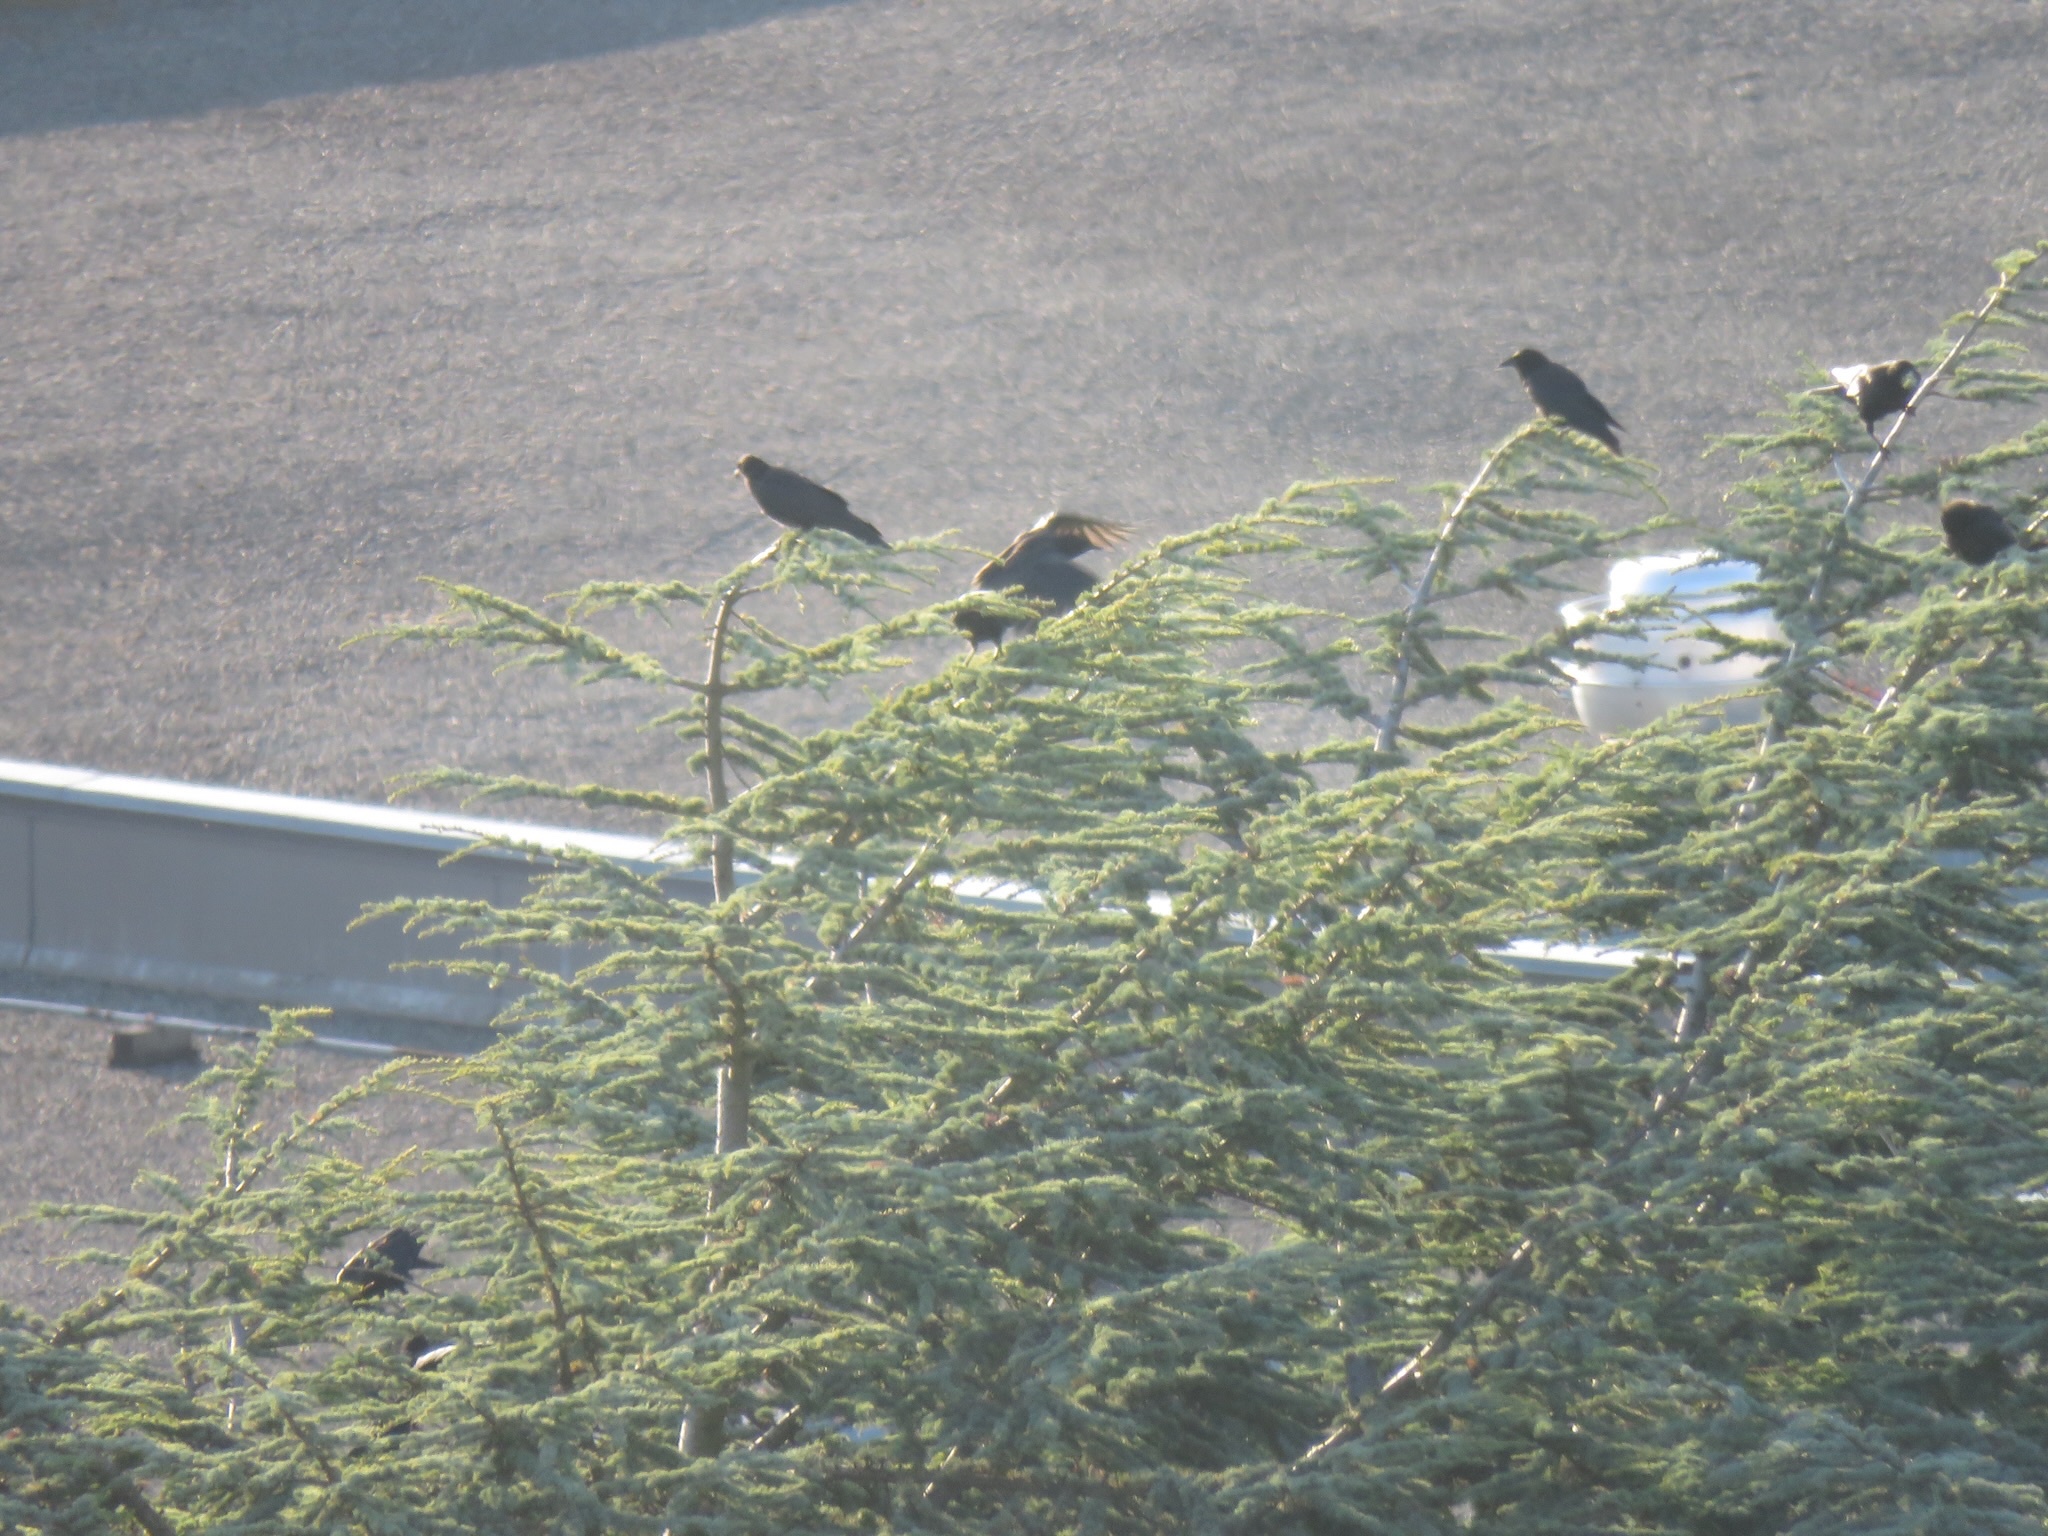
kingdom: Animalia
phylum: Chordata
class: Aves
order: Passeriformes
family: Corvidae
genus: Corvus
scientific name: Corvus brachyrhynchos
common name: American crow
